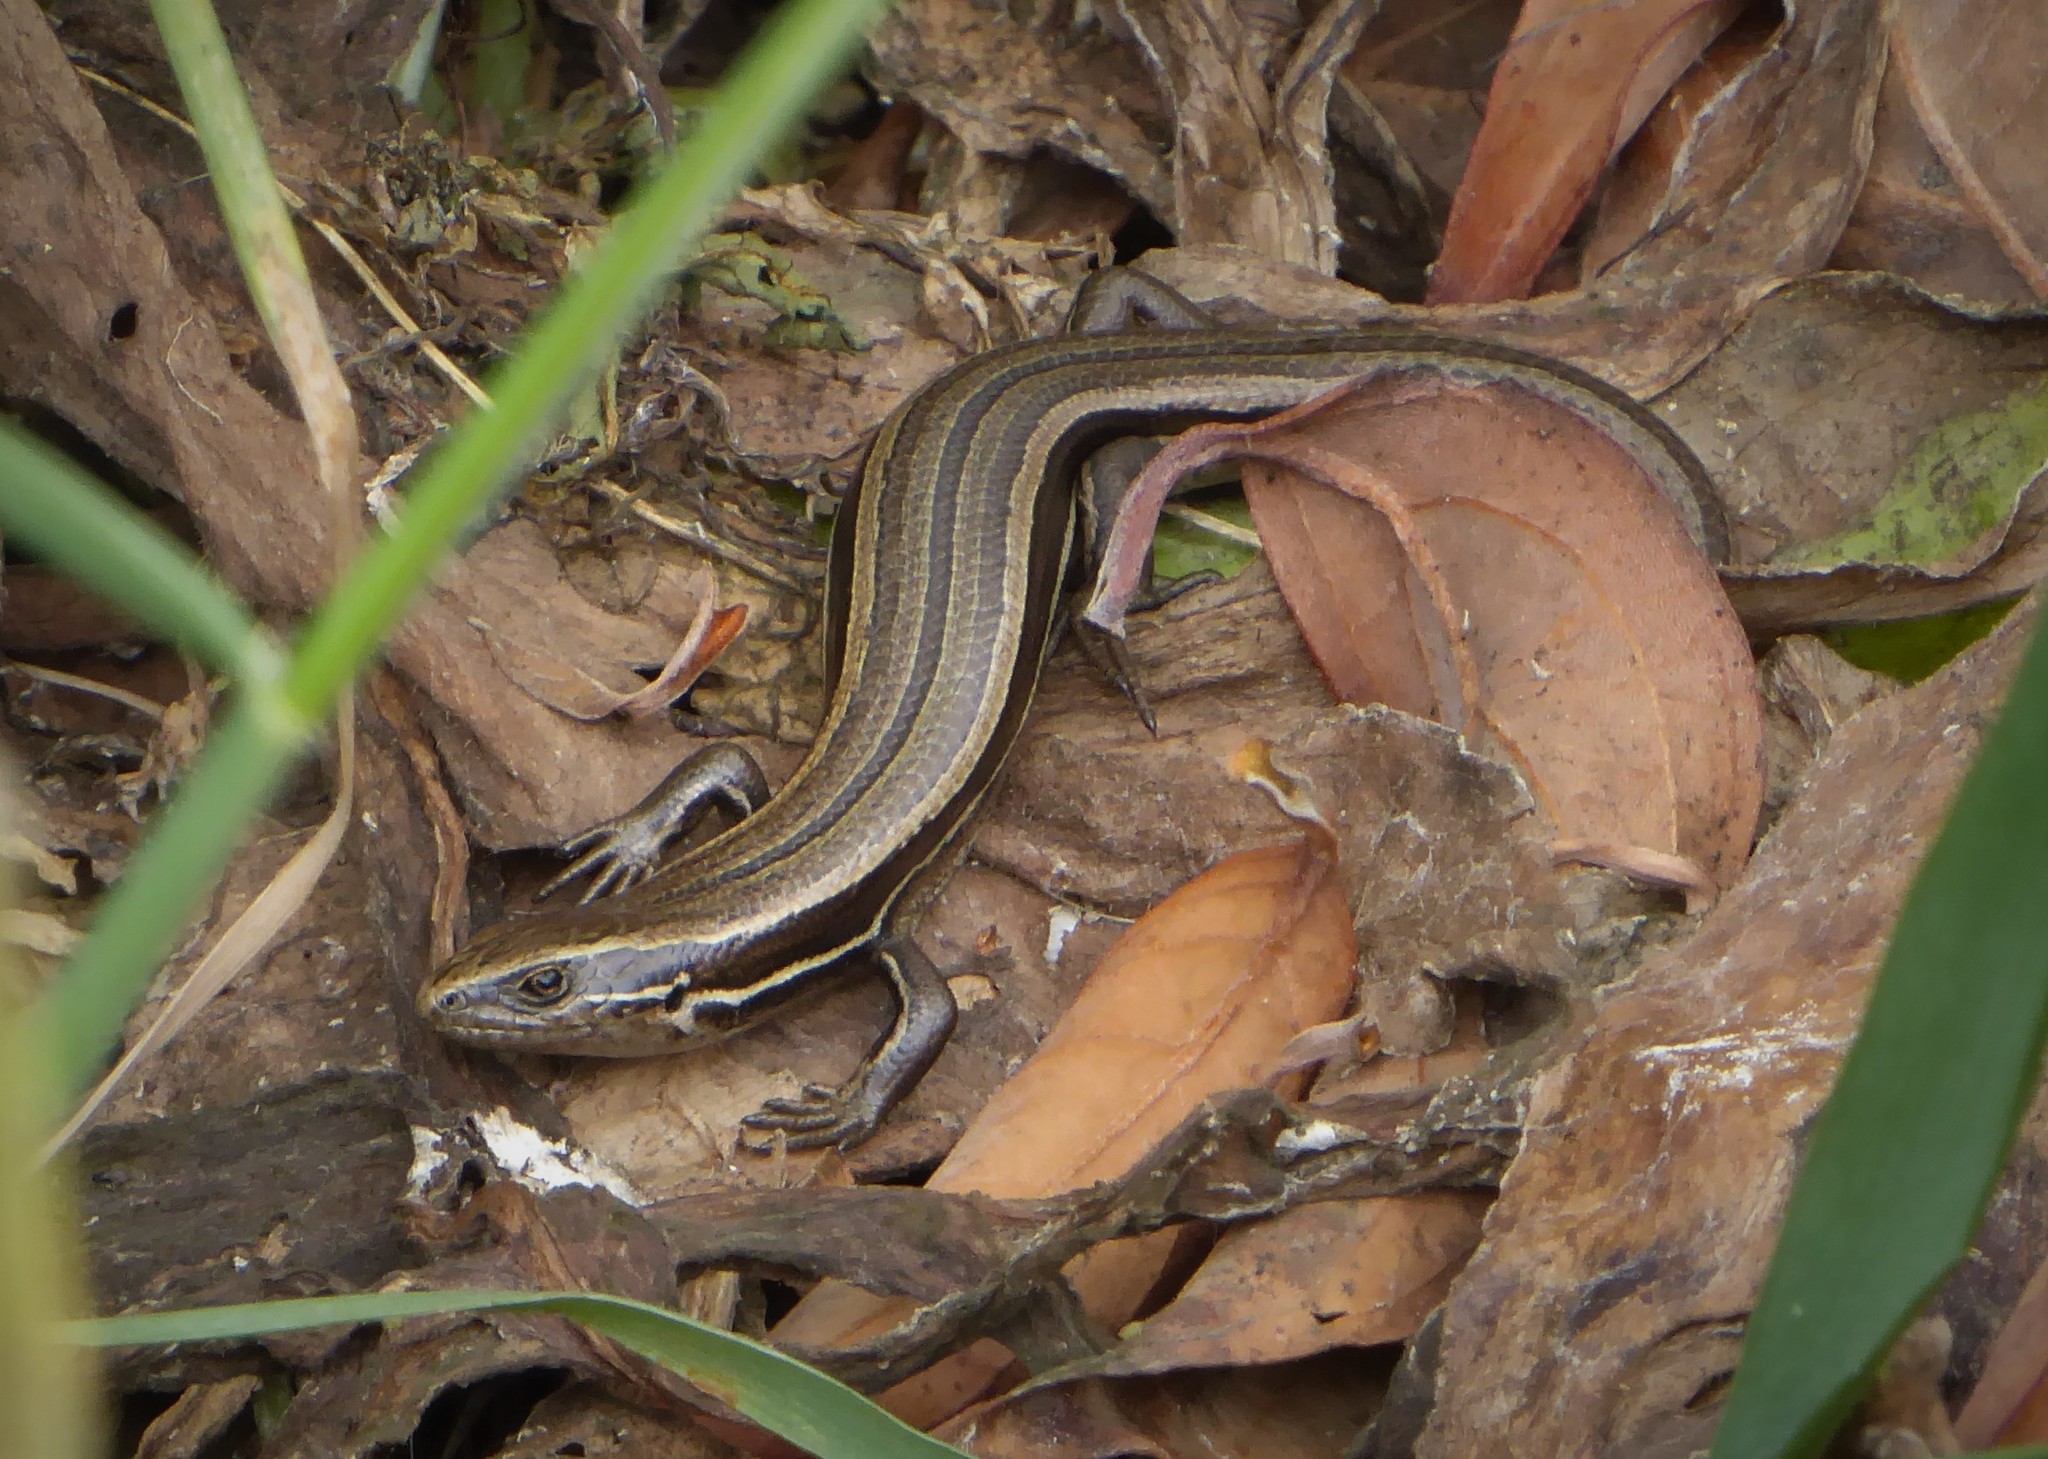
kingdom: Animalia
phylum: Chordata
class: Squamata
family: Scincidae
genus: Oligosoma
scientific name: Oligosoma polychroma
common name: Common new zealand skink
